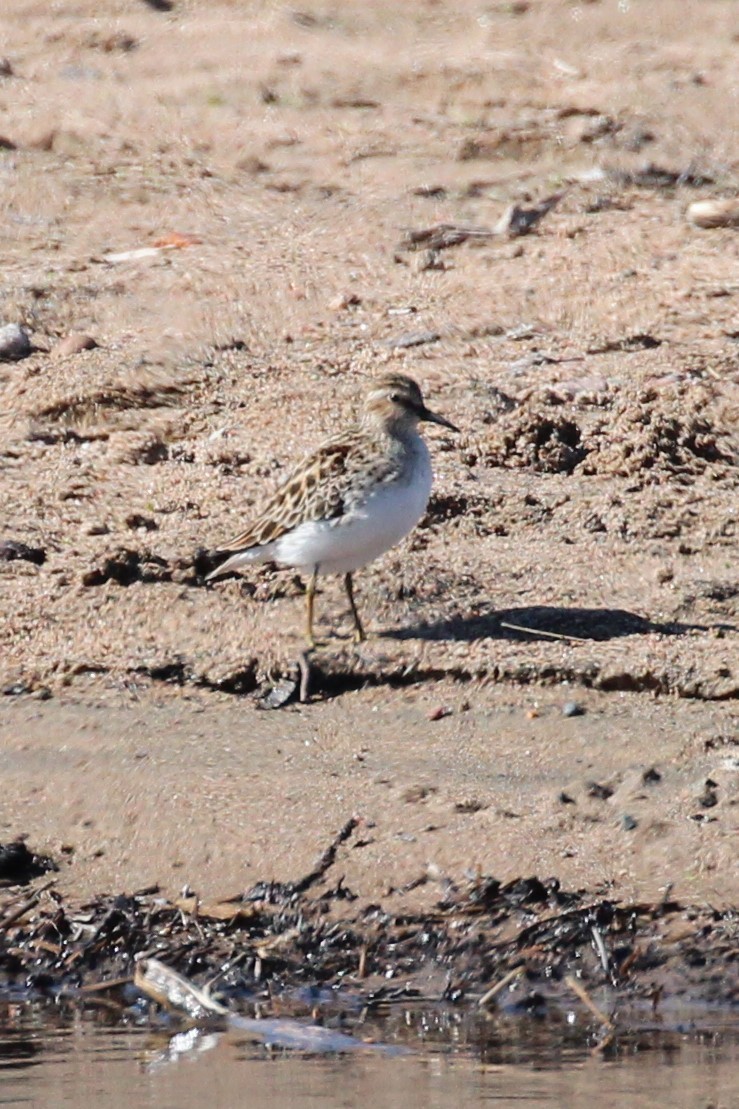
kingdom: Animalia
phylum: Chordata
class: Aves
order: Charadriiformes
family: Scolopacidae
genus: Calidris
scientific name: Calidris minutilla
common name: Least sandpiper
